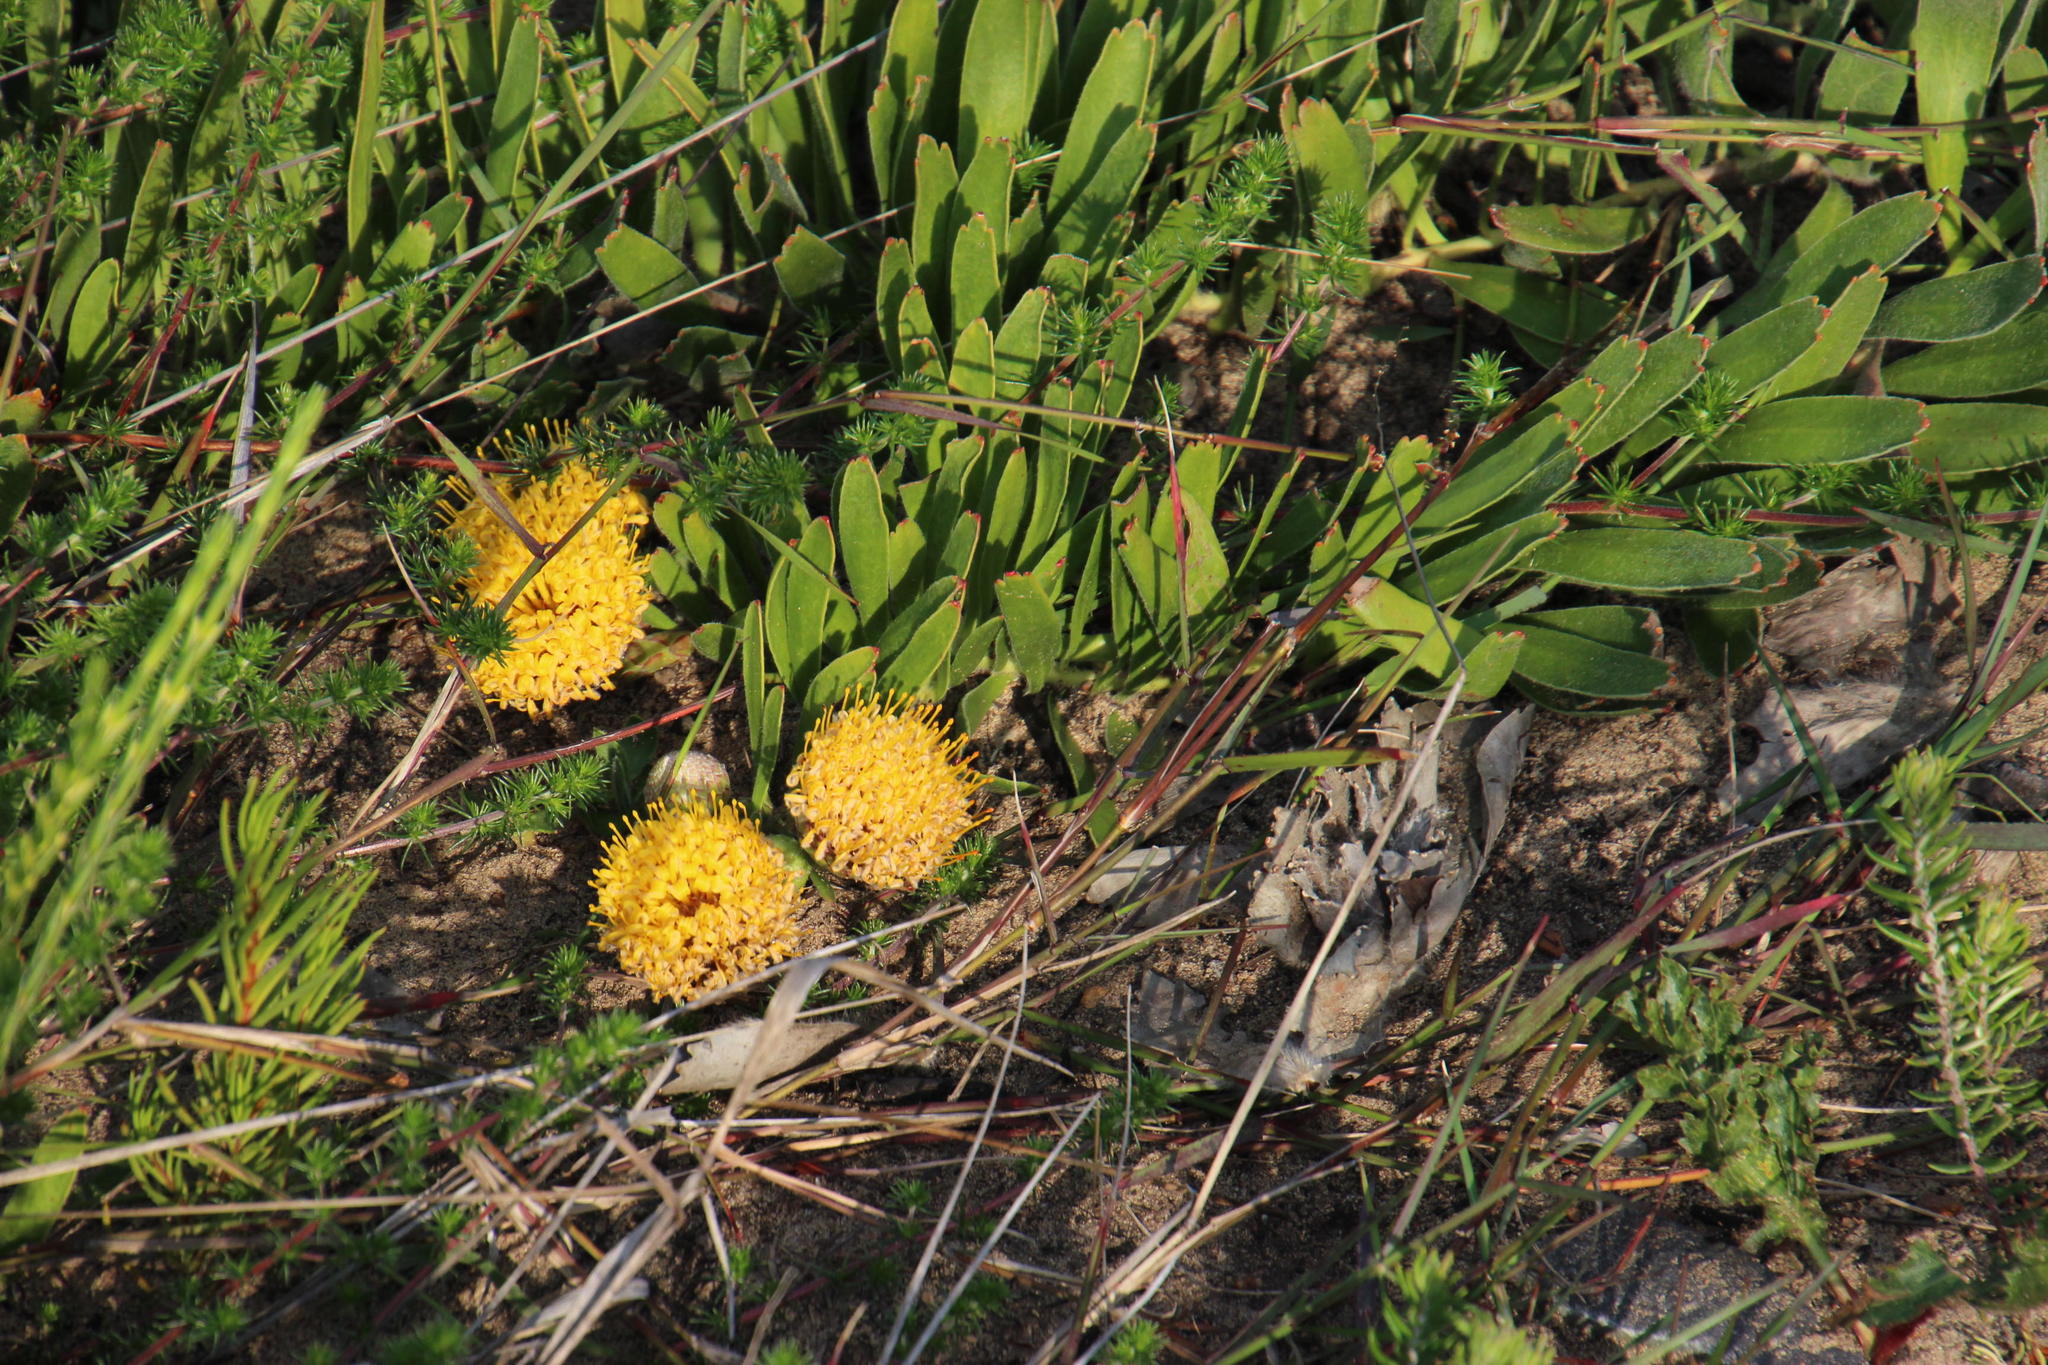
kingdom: Plantae
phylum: Tracheophyta
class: Magnoliopsida
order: Proteales
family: Proteaceae
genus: Leucospermum
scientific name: Leucospermum hypophyllocarpodendron
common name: Snakestem pincushion
